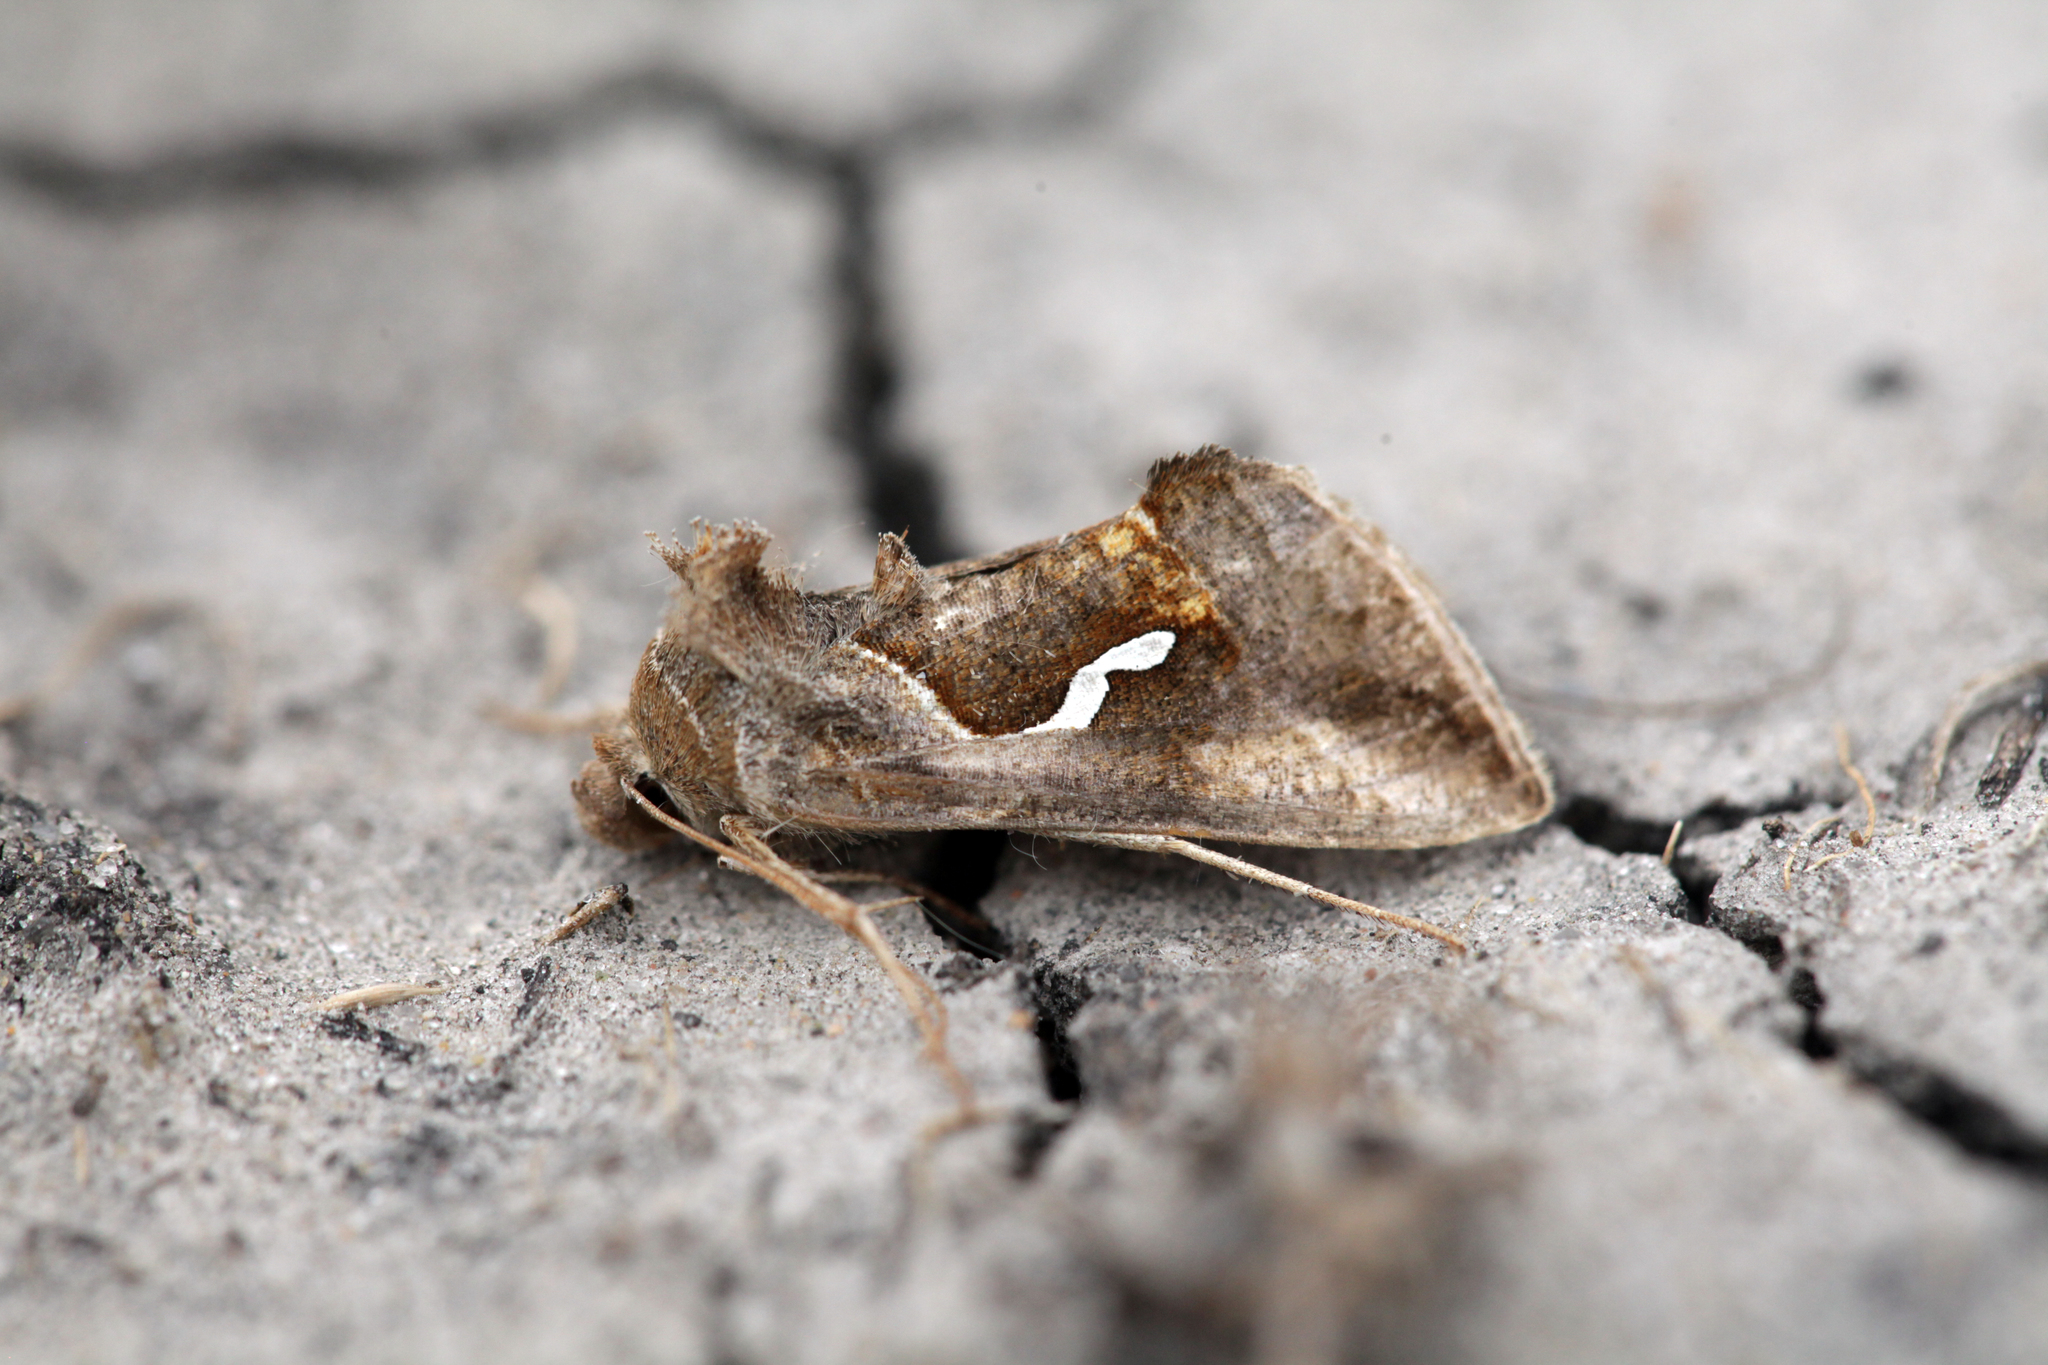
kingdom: Animalia
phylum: Arthropoda
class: Insecta
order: Lepidoptera
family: Noctuidae
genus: Macdunnoughia
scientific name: Macdunnoughia confusa
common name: Dewick's plusia
